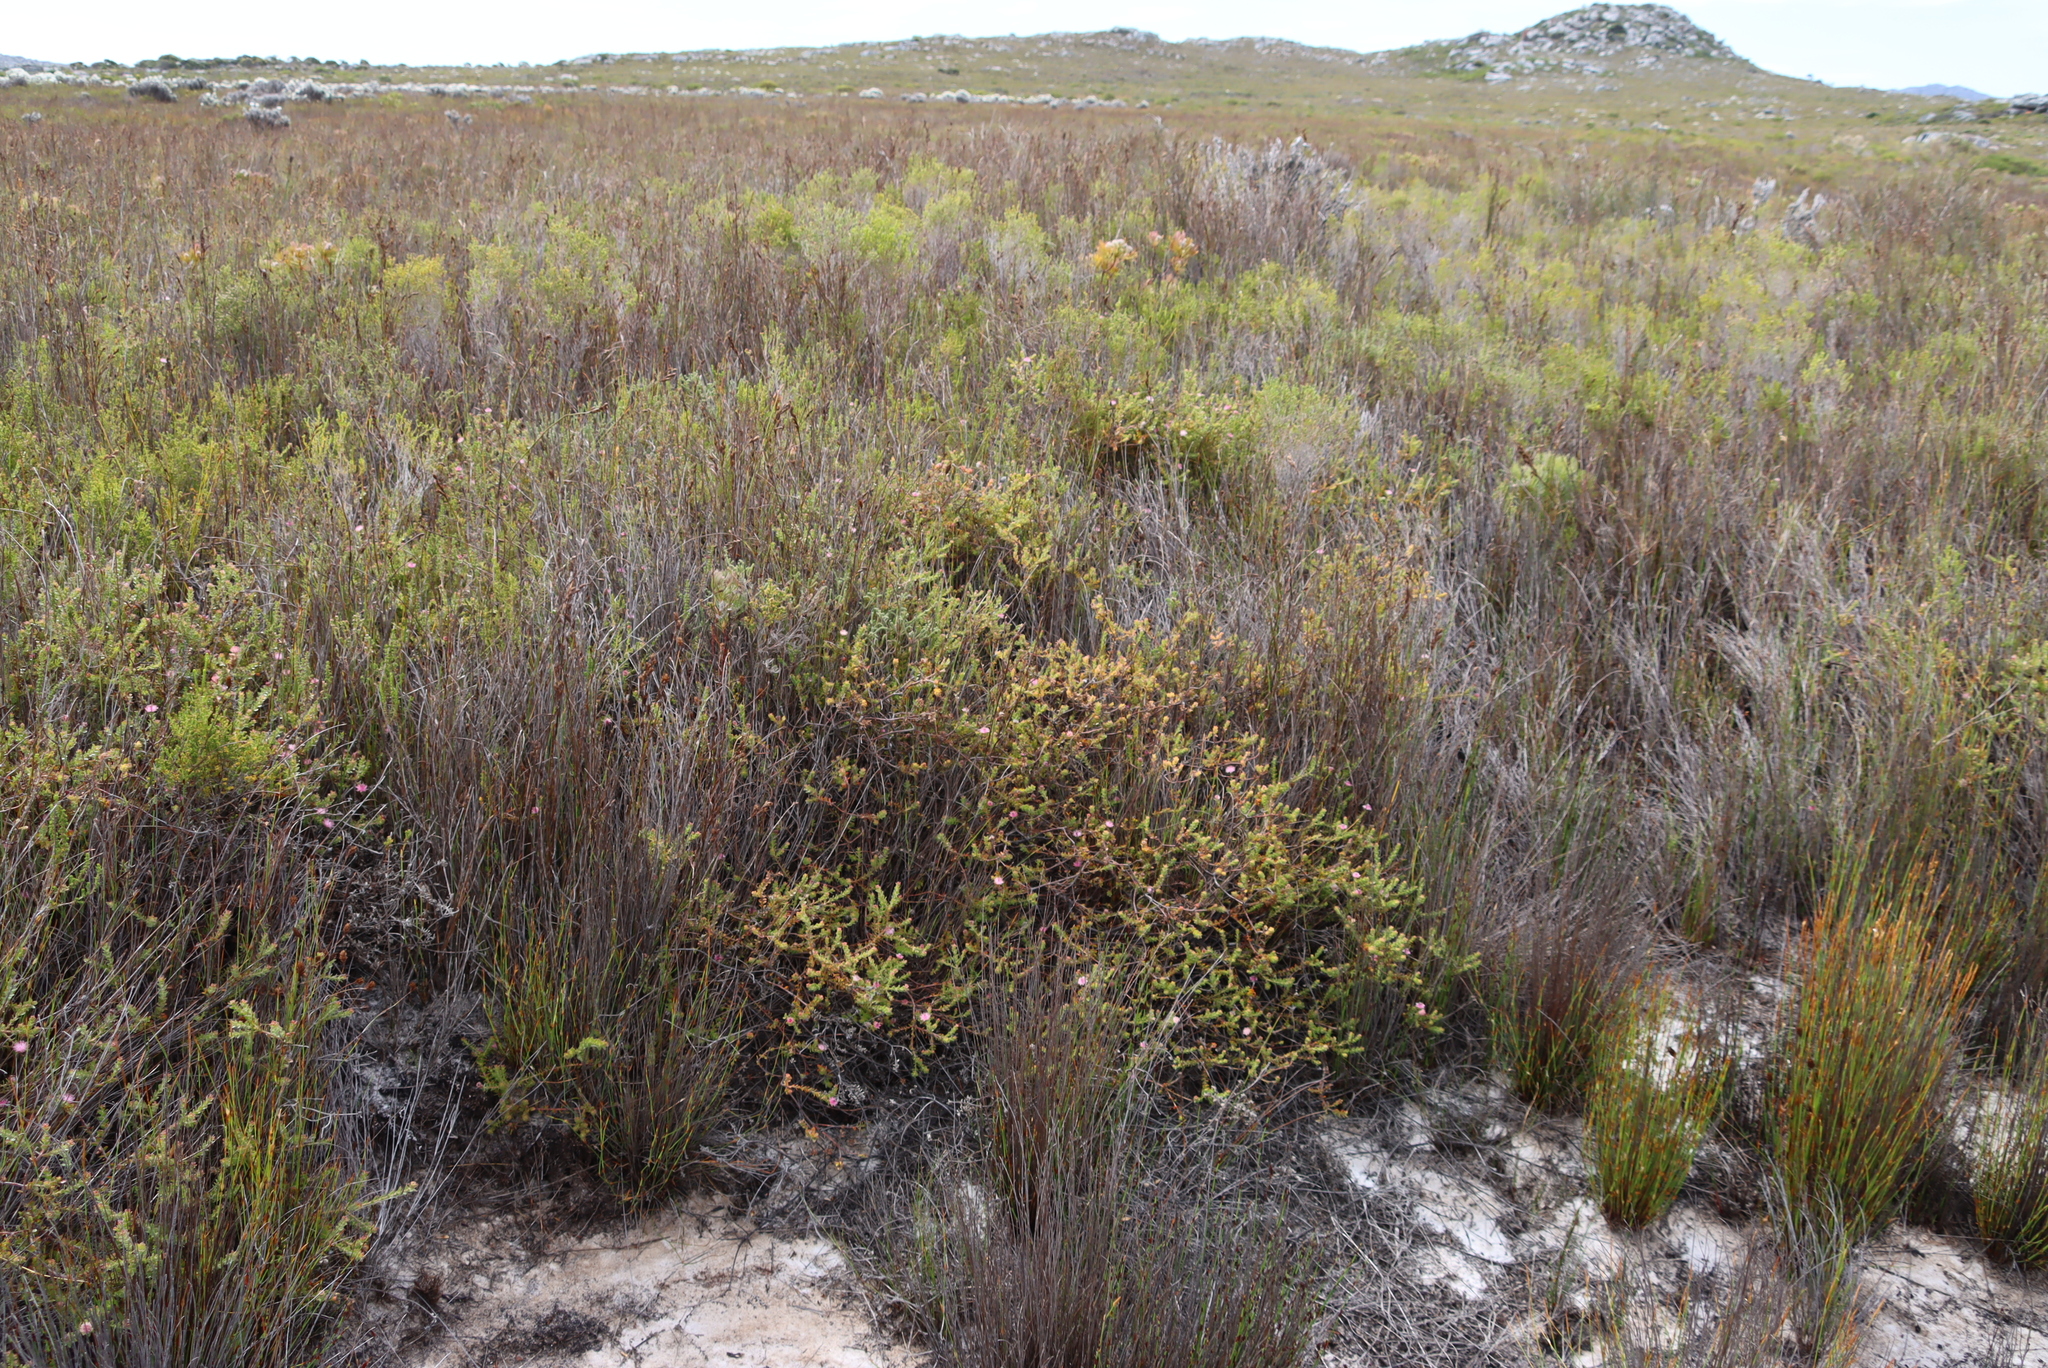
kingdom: Plantae
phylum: Tracheophyta
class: Magnoliopsida
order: Proteales
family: Proteaceae
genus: Diastella
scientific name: Diastella divaricata
